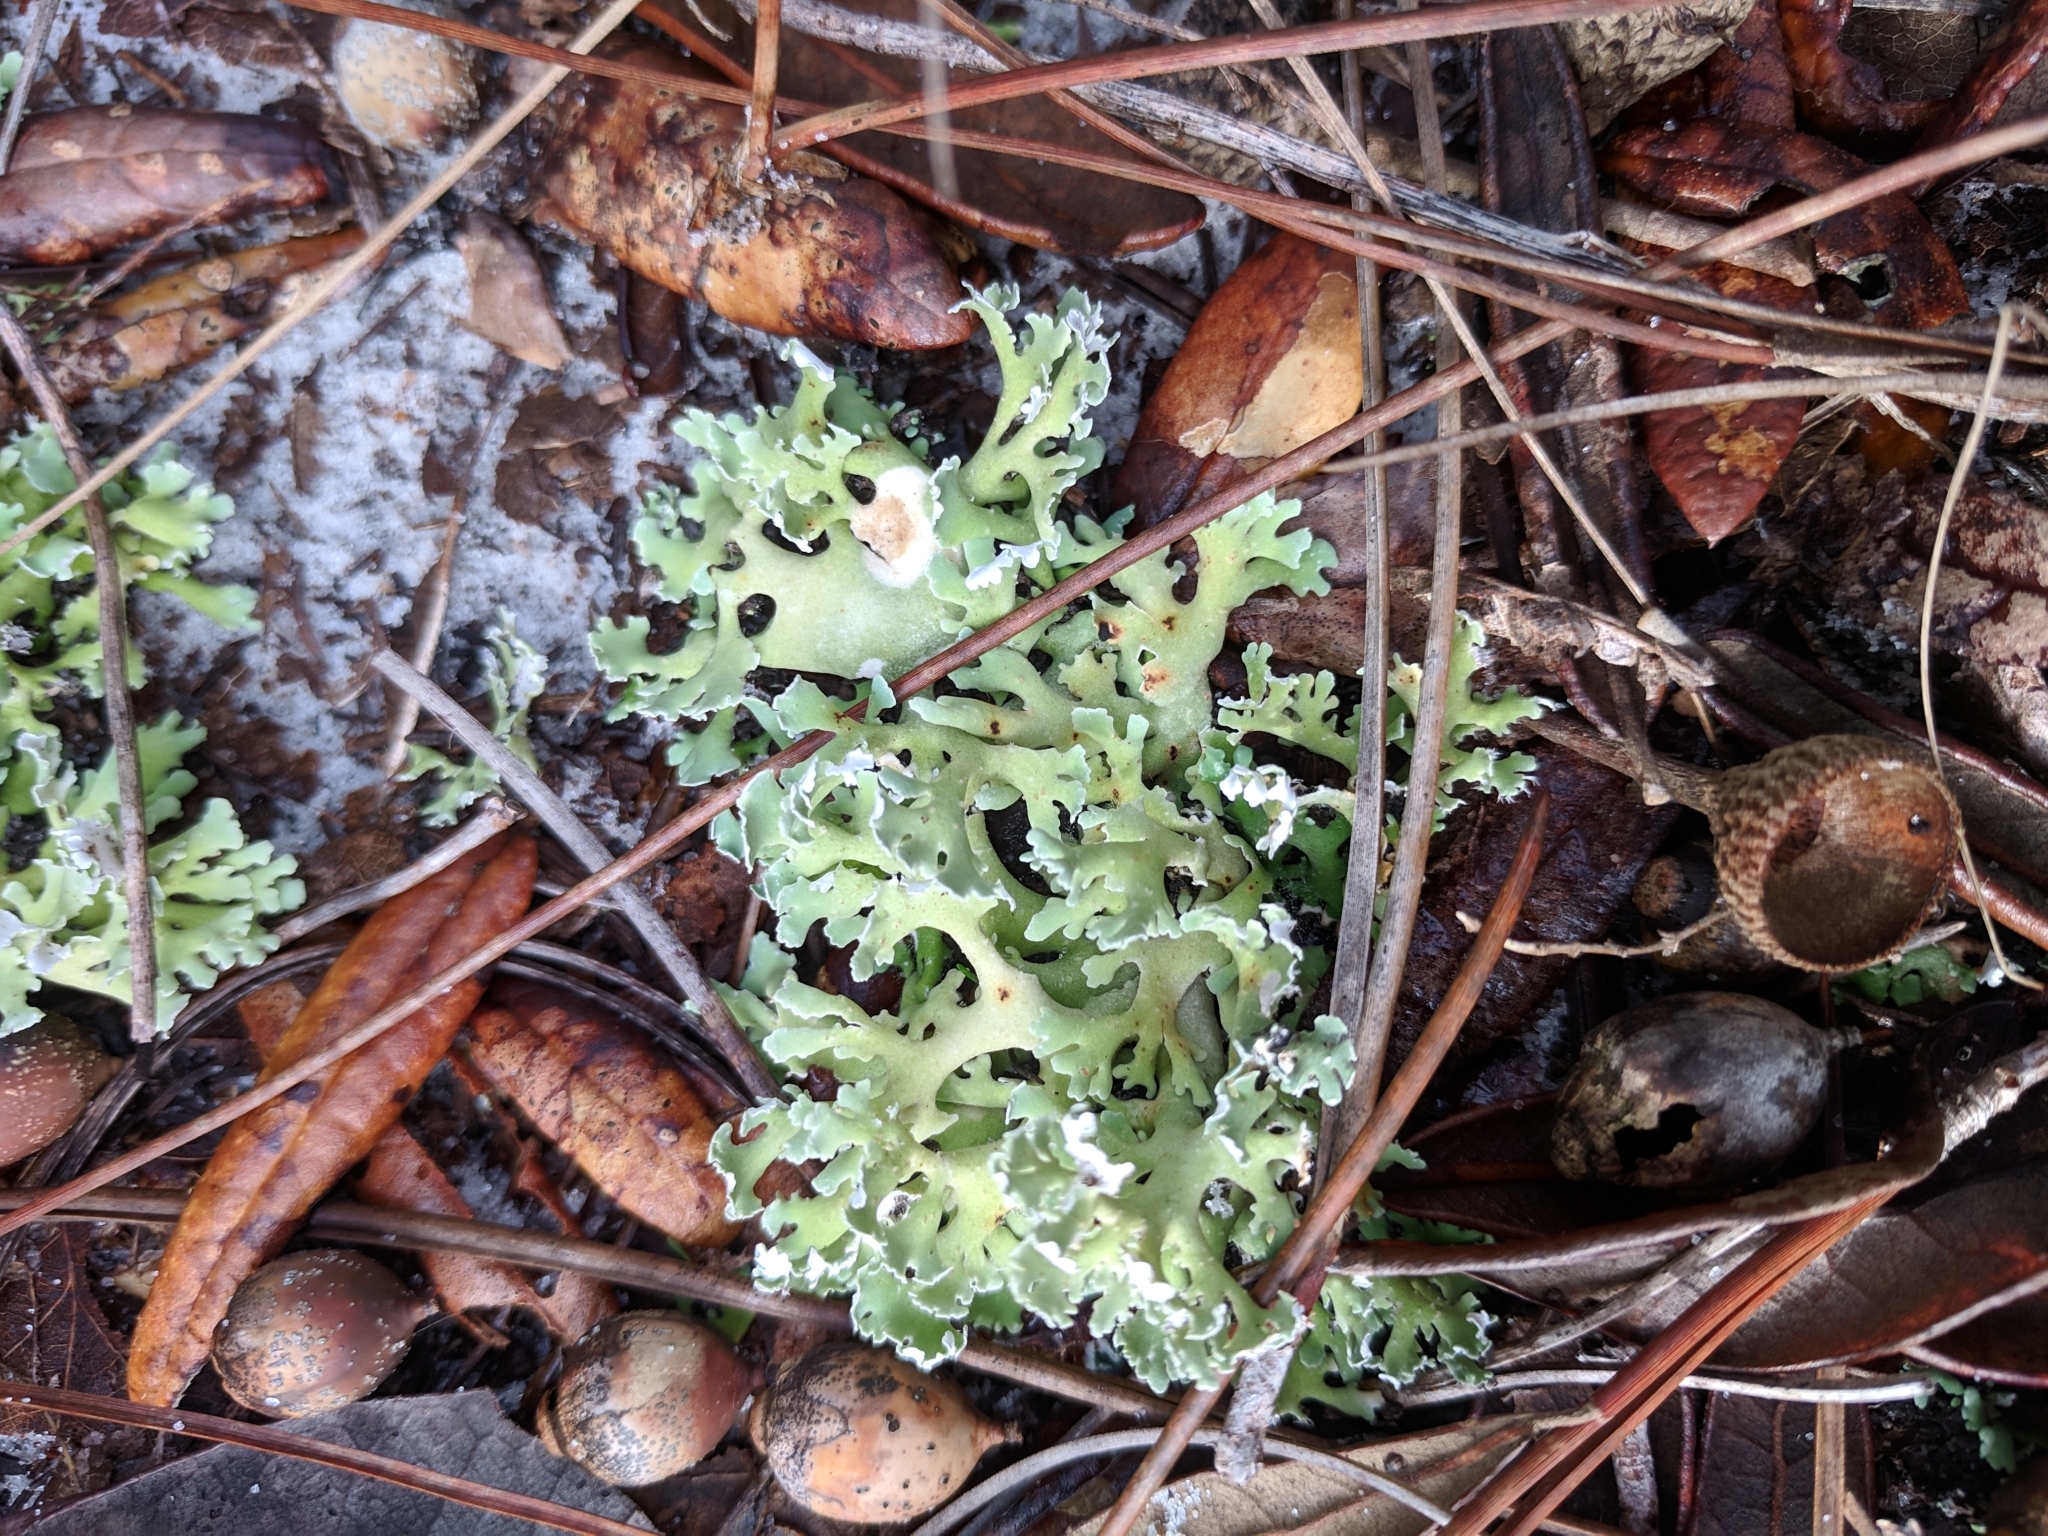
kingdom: Fungi
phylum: Ascomycota
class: Lecanoromycetes
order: Lecanorales
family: Cladoniaceae
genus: Cladonia
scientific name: Cladonia prostrata
